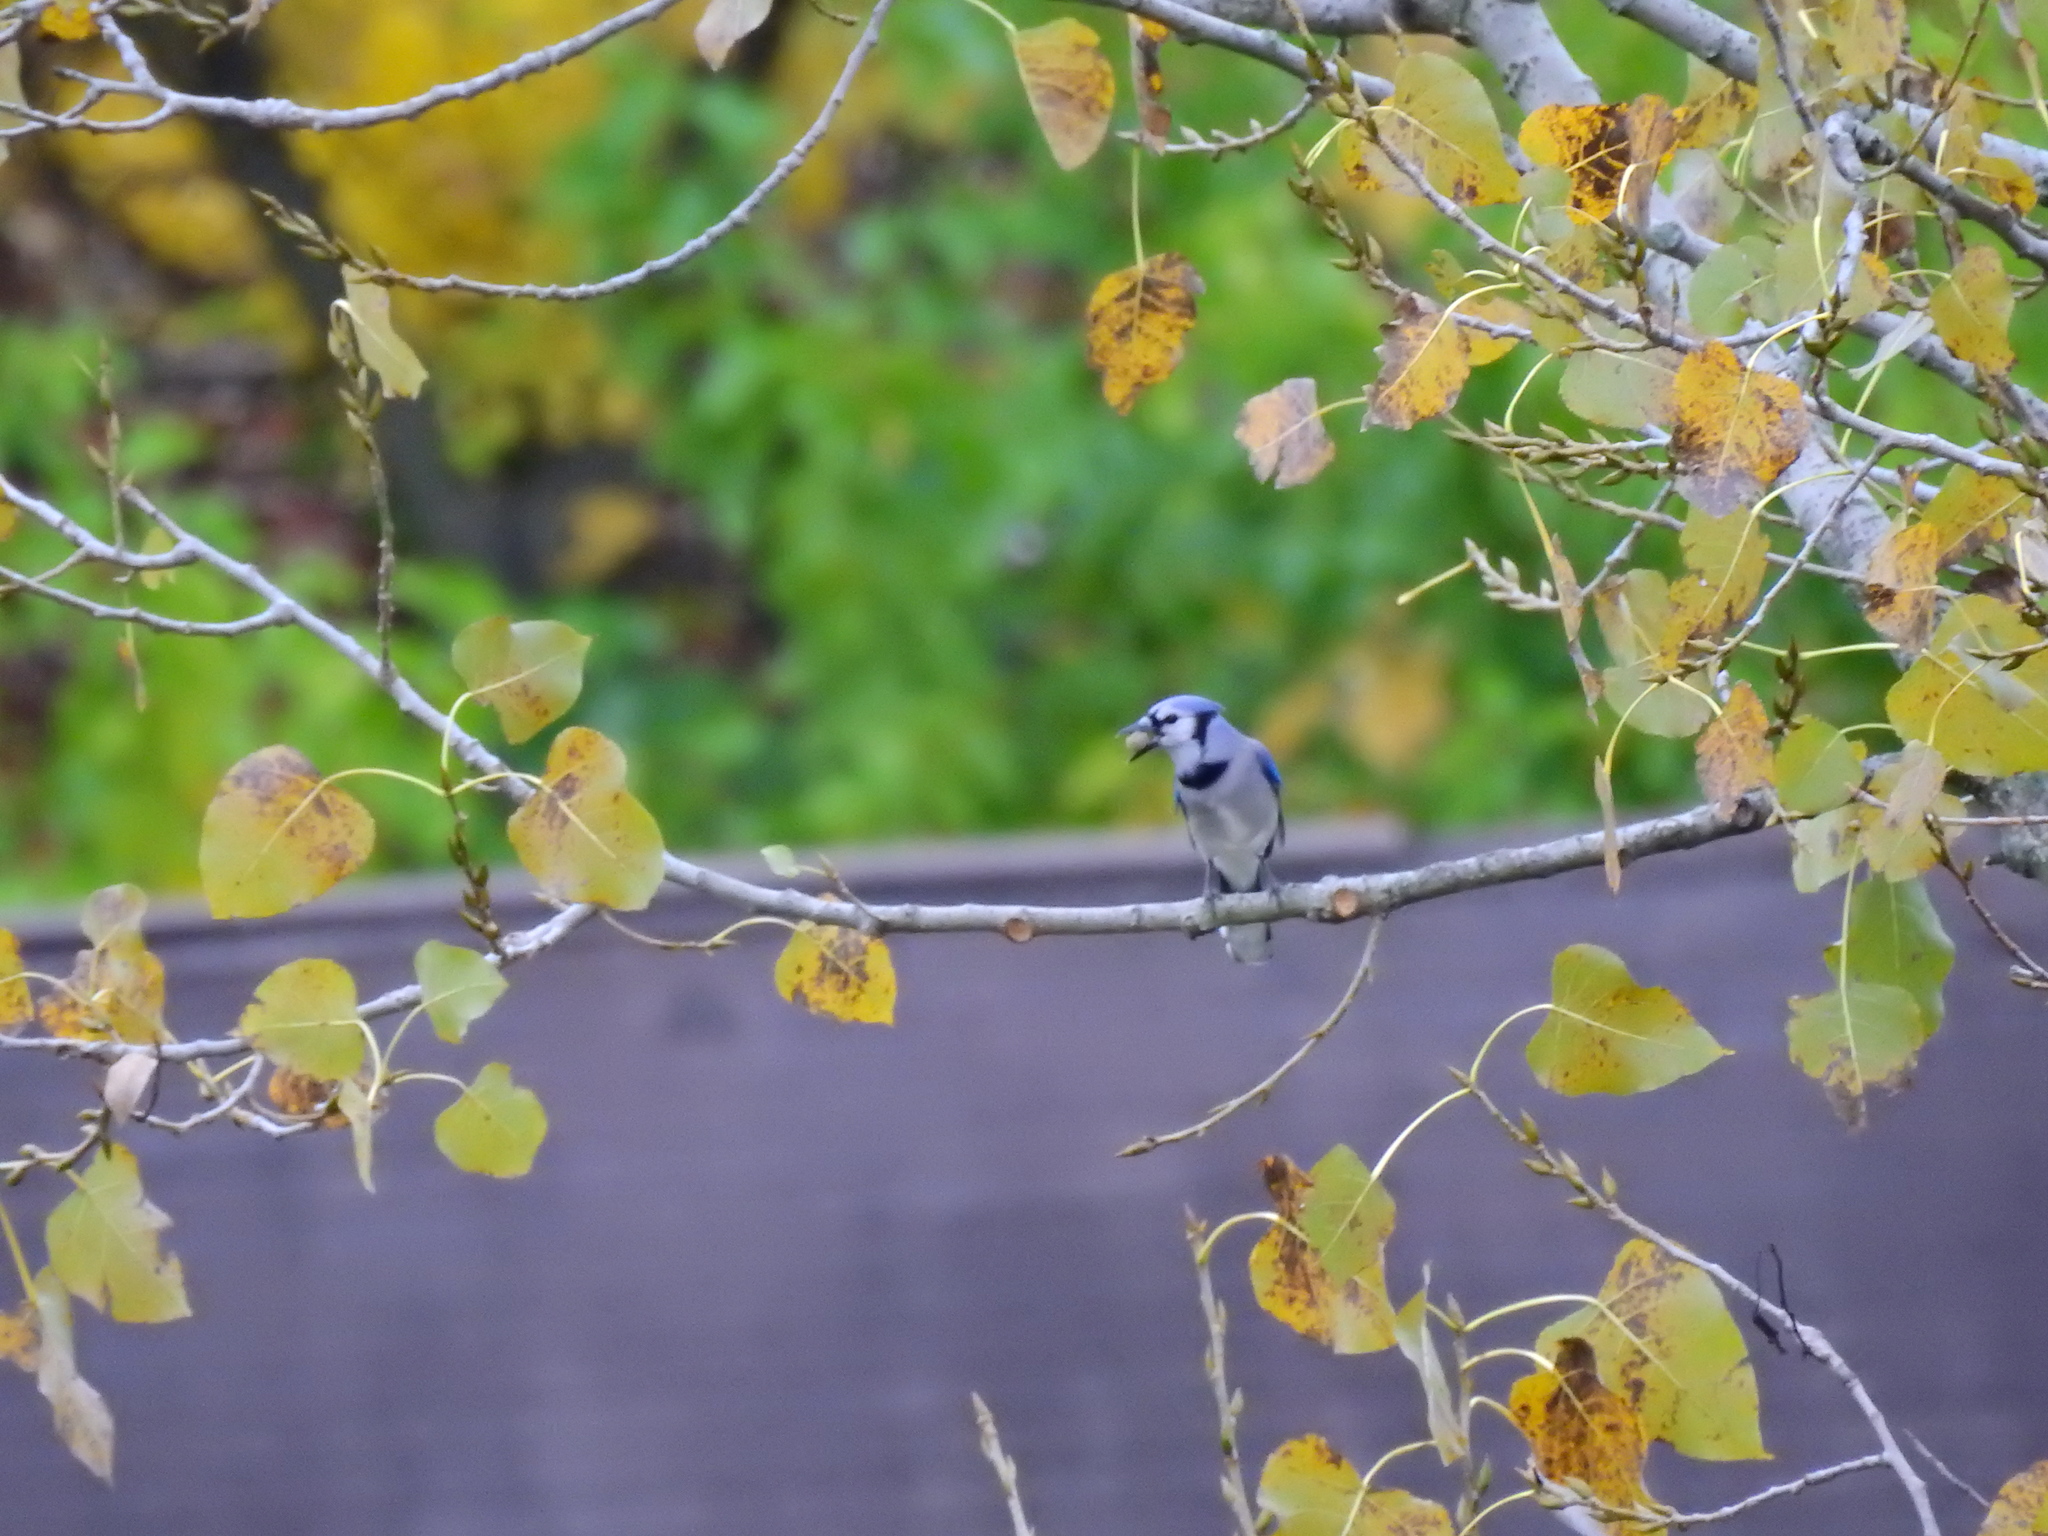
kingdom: Animalia
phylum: Chordata
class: Aves
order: Passeriformes
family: Corvidae
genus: Cyanocitta
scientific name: Cyanocitta cristata
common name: Blue jay
